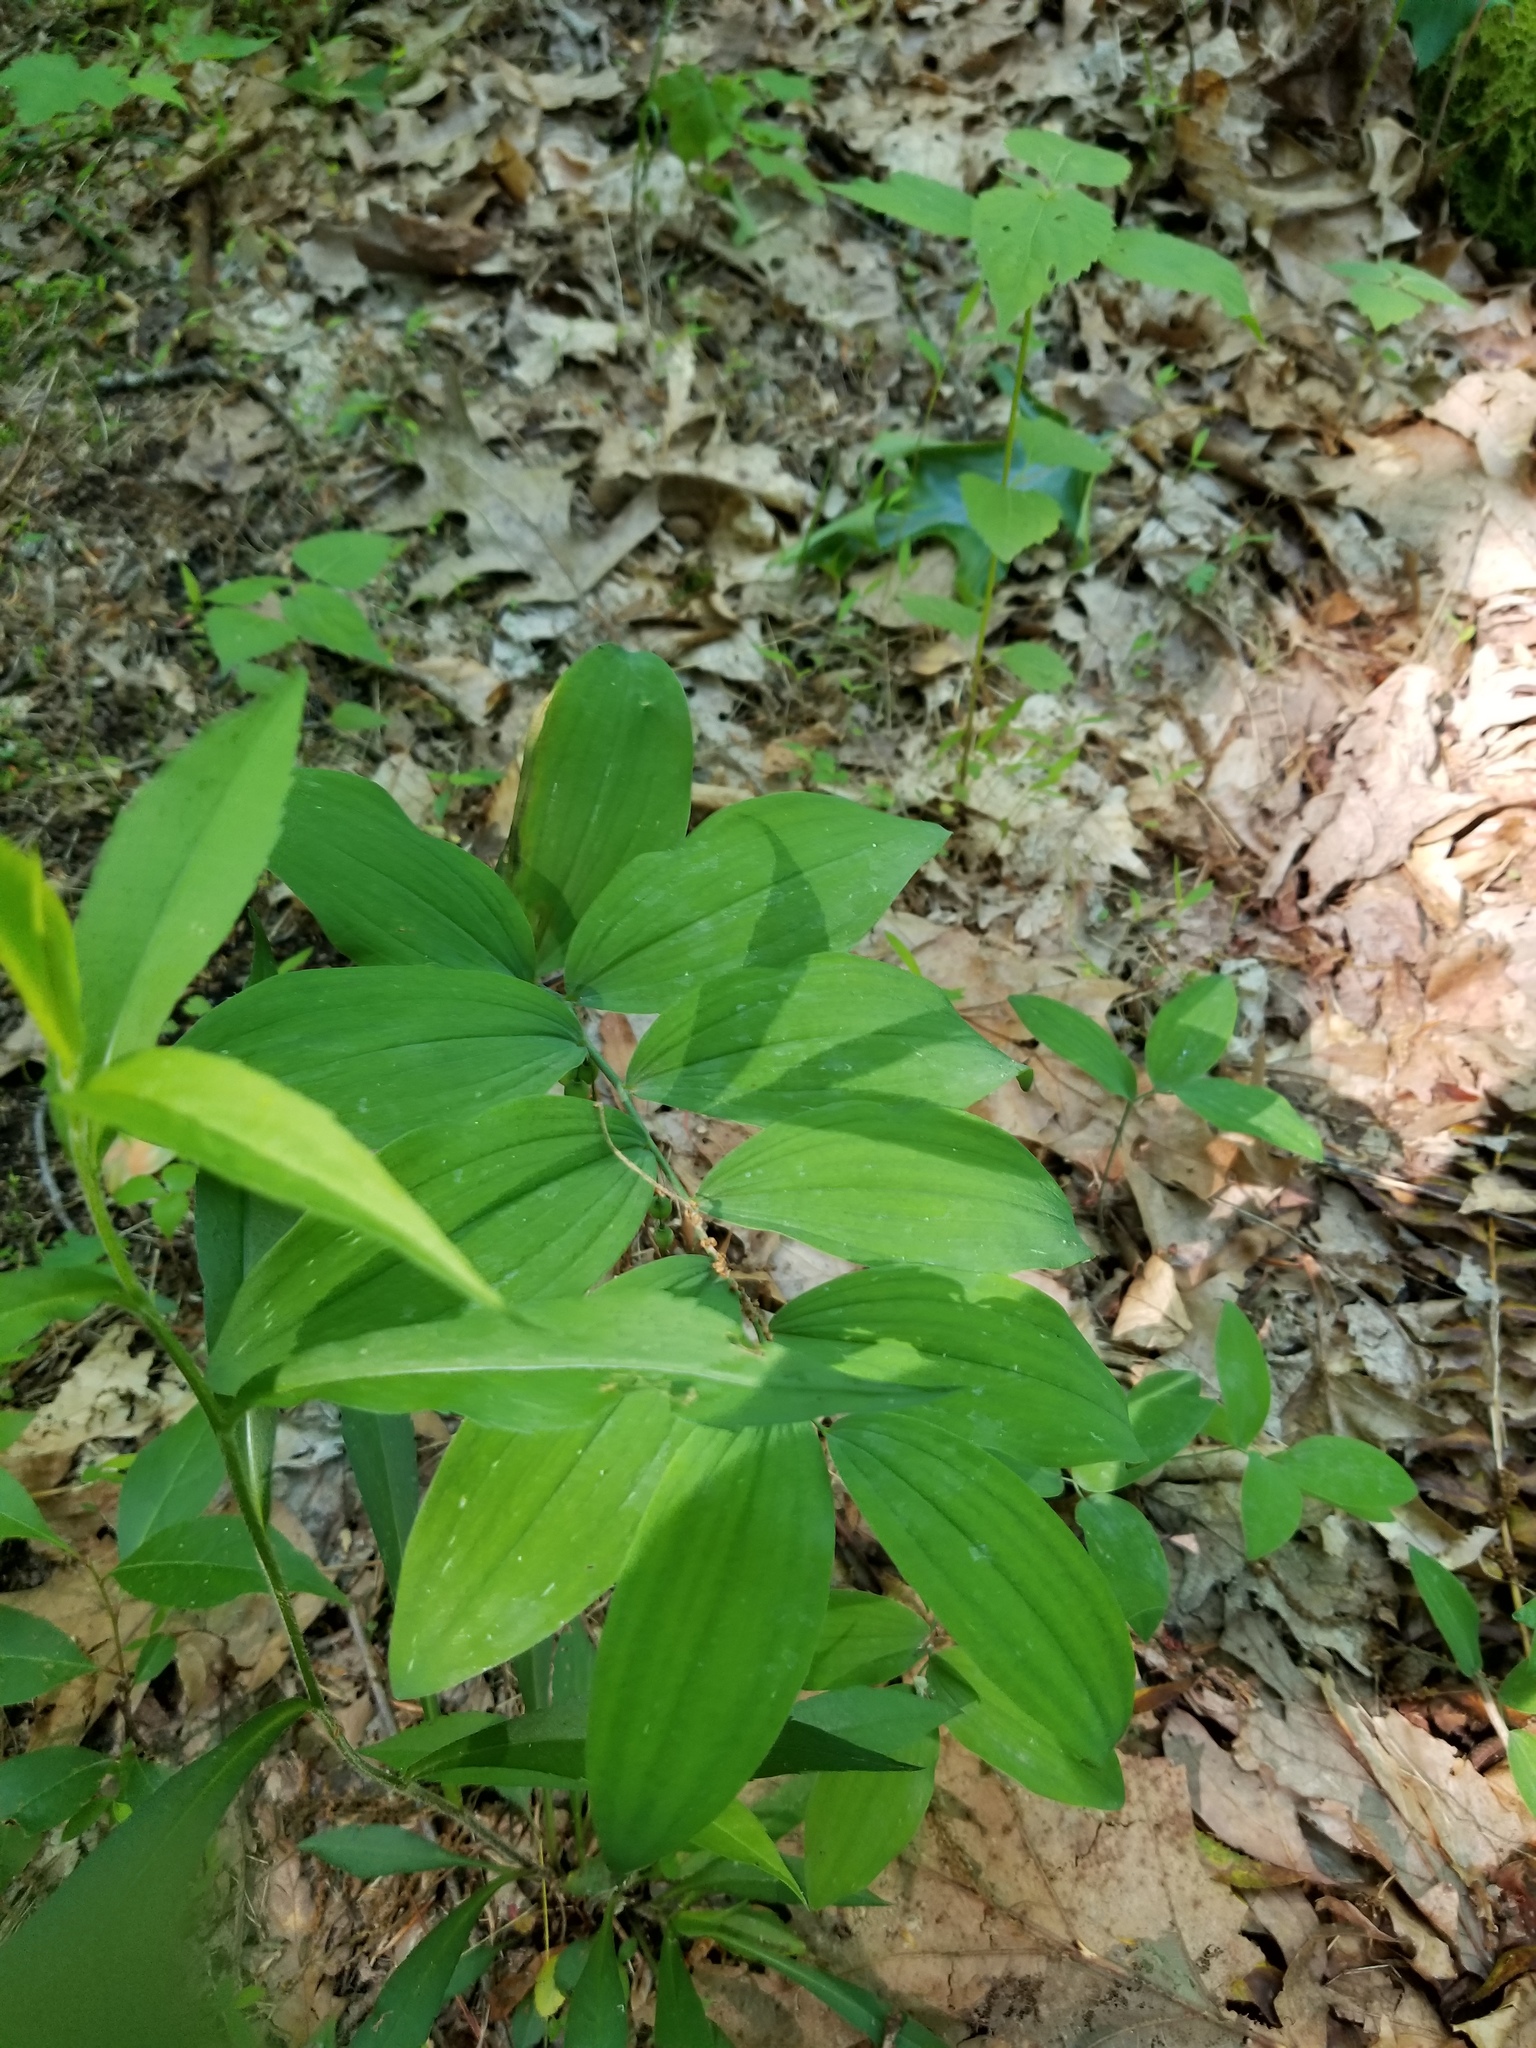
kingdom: Plantae
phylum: Tracheophyta
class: Liliopsida
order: Asparagales
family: Asparagaceae
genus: Polygonatum
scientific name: Polygonatum pubescens
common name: Downy solomon's seal
